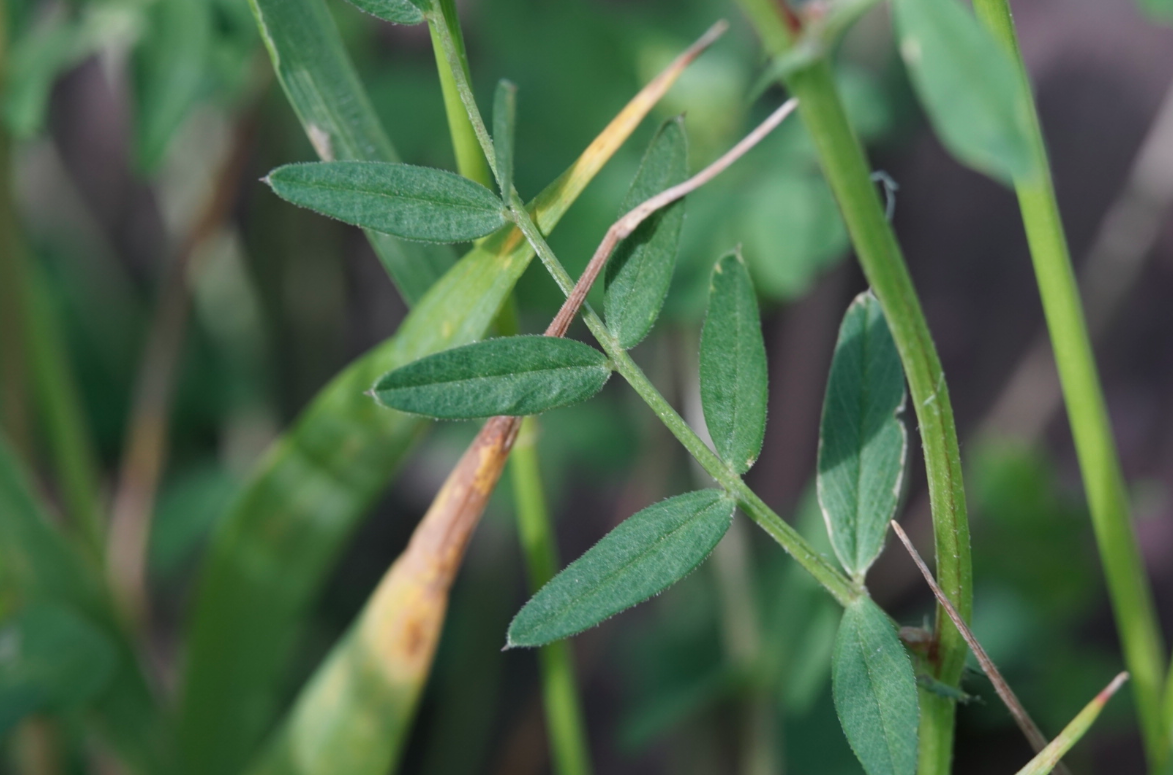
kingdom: Plantae
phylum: Tracheophyta
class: Magnoliopsida
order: Fabales
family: Fabaceae
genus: Vicia
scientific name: Vicia sativa
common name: Garden vetch
